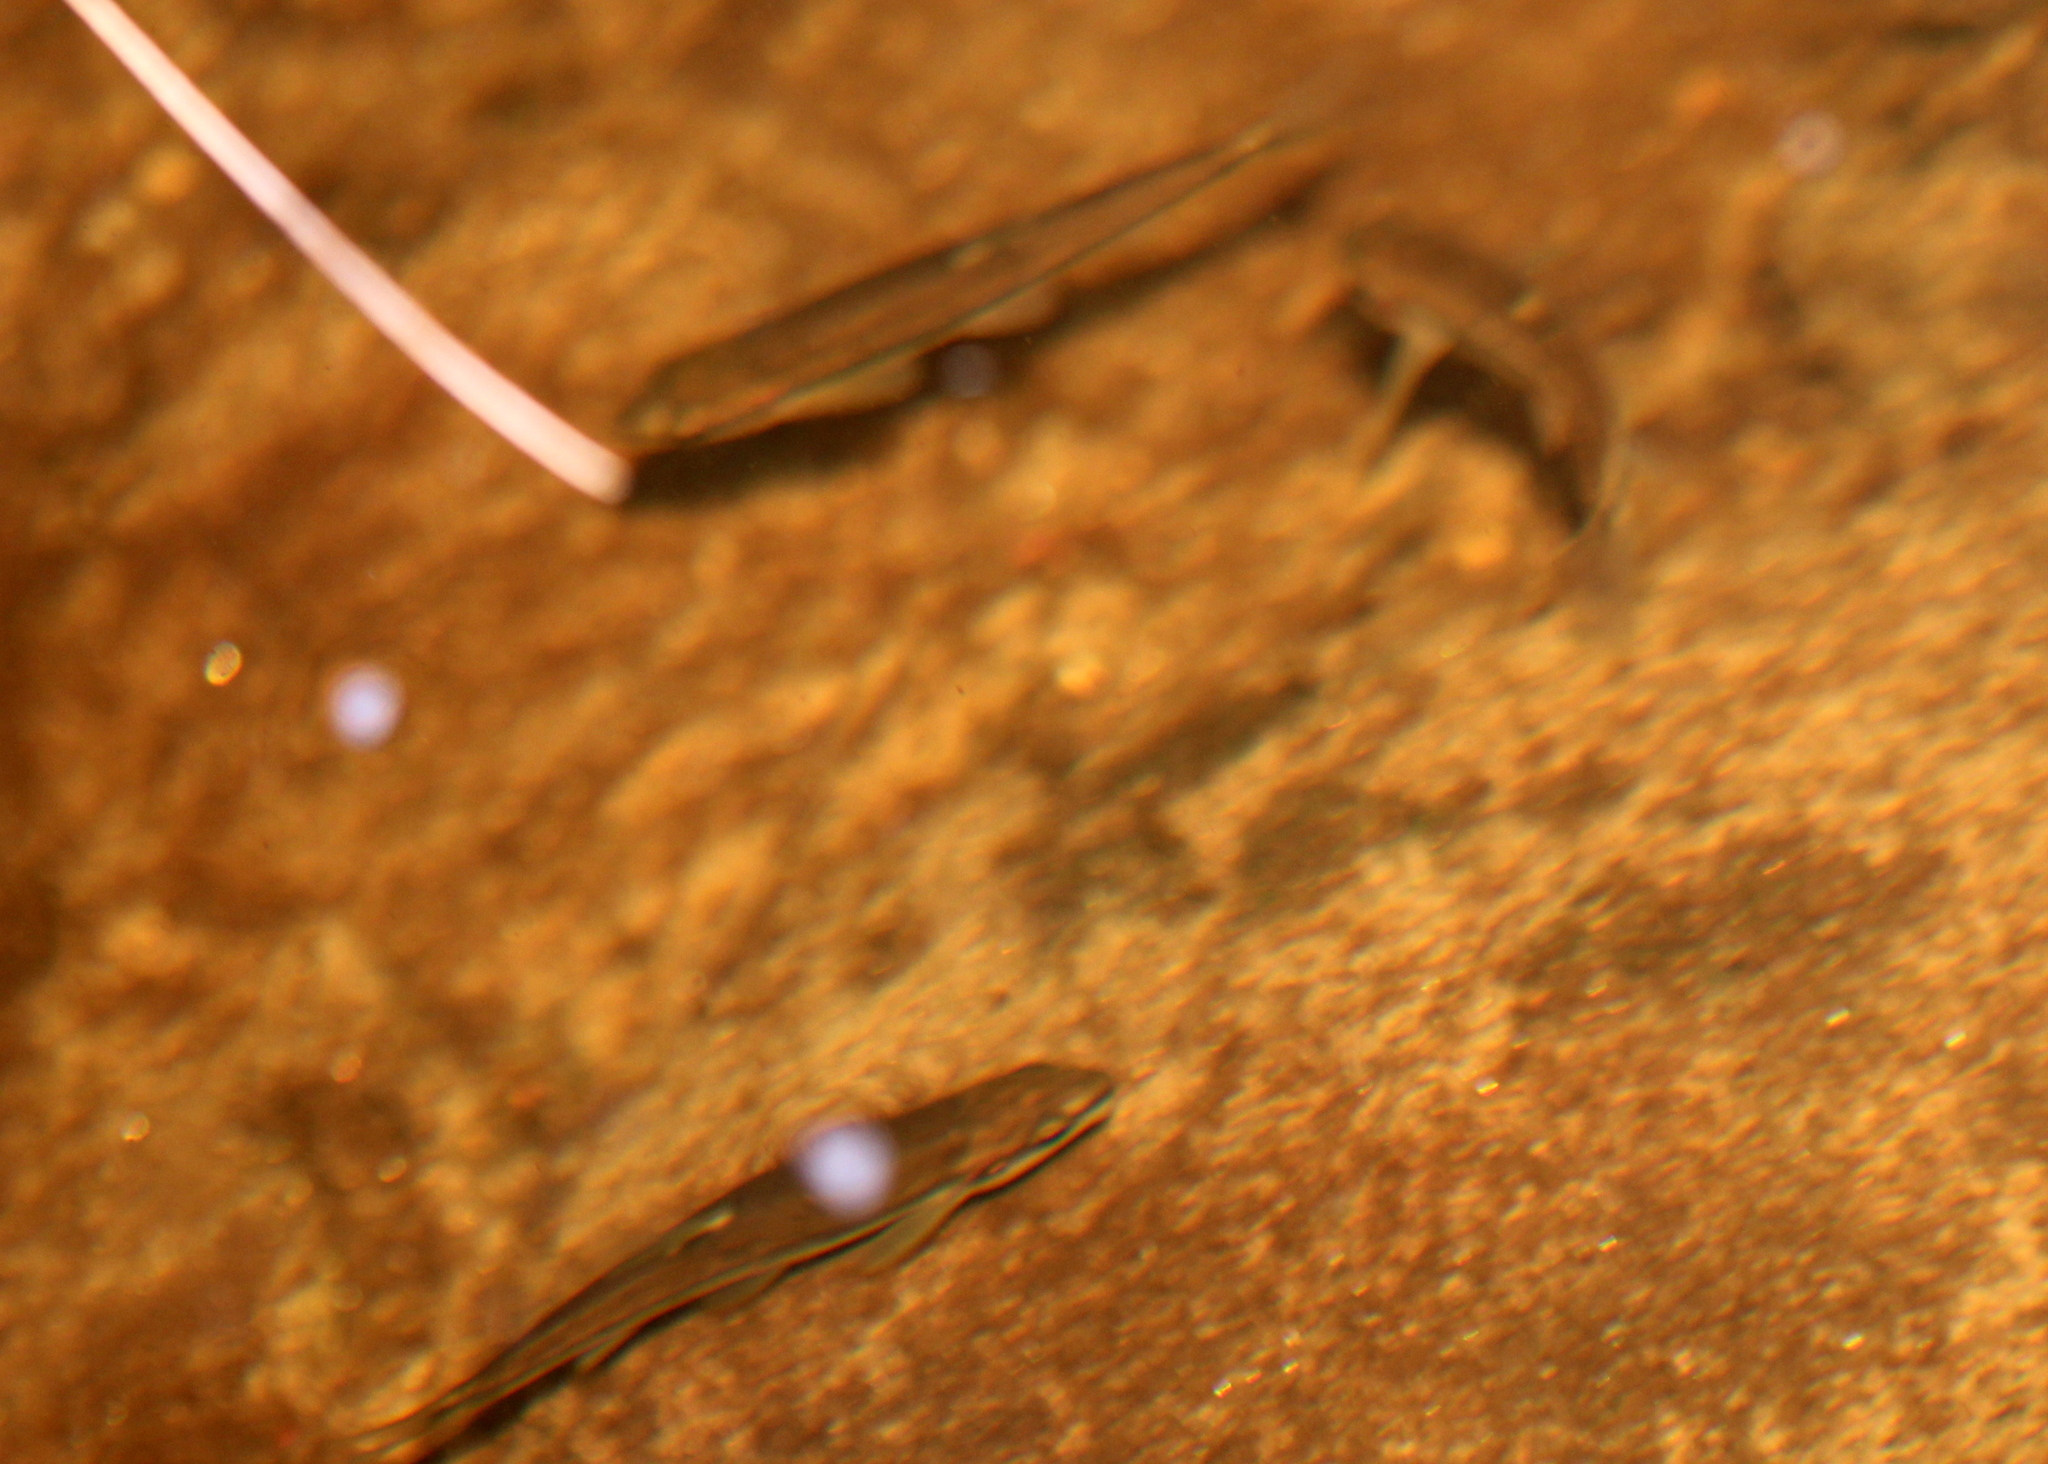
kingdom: Animalia
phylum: Chordata
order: Cypriniformes
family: Cyprinidae
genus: Rhinichthys
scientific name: Rhinichthys atratulus
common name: Eastern blacknose dace
